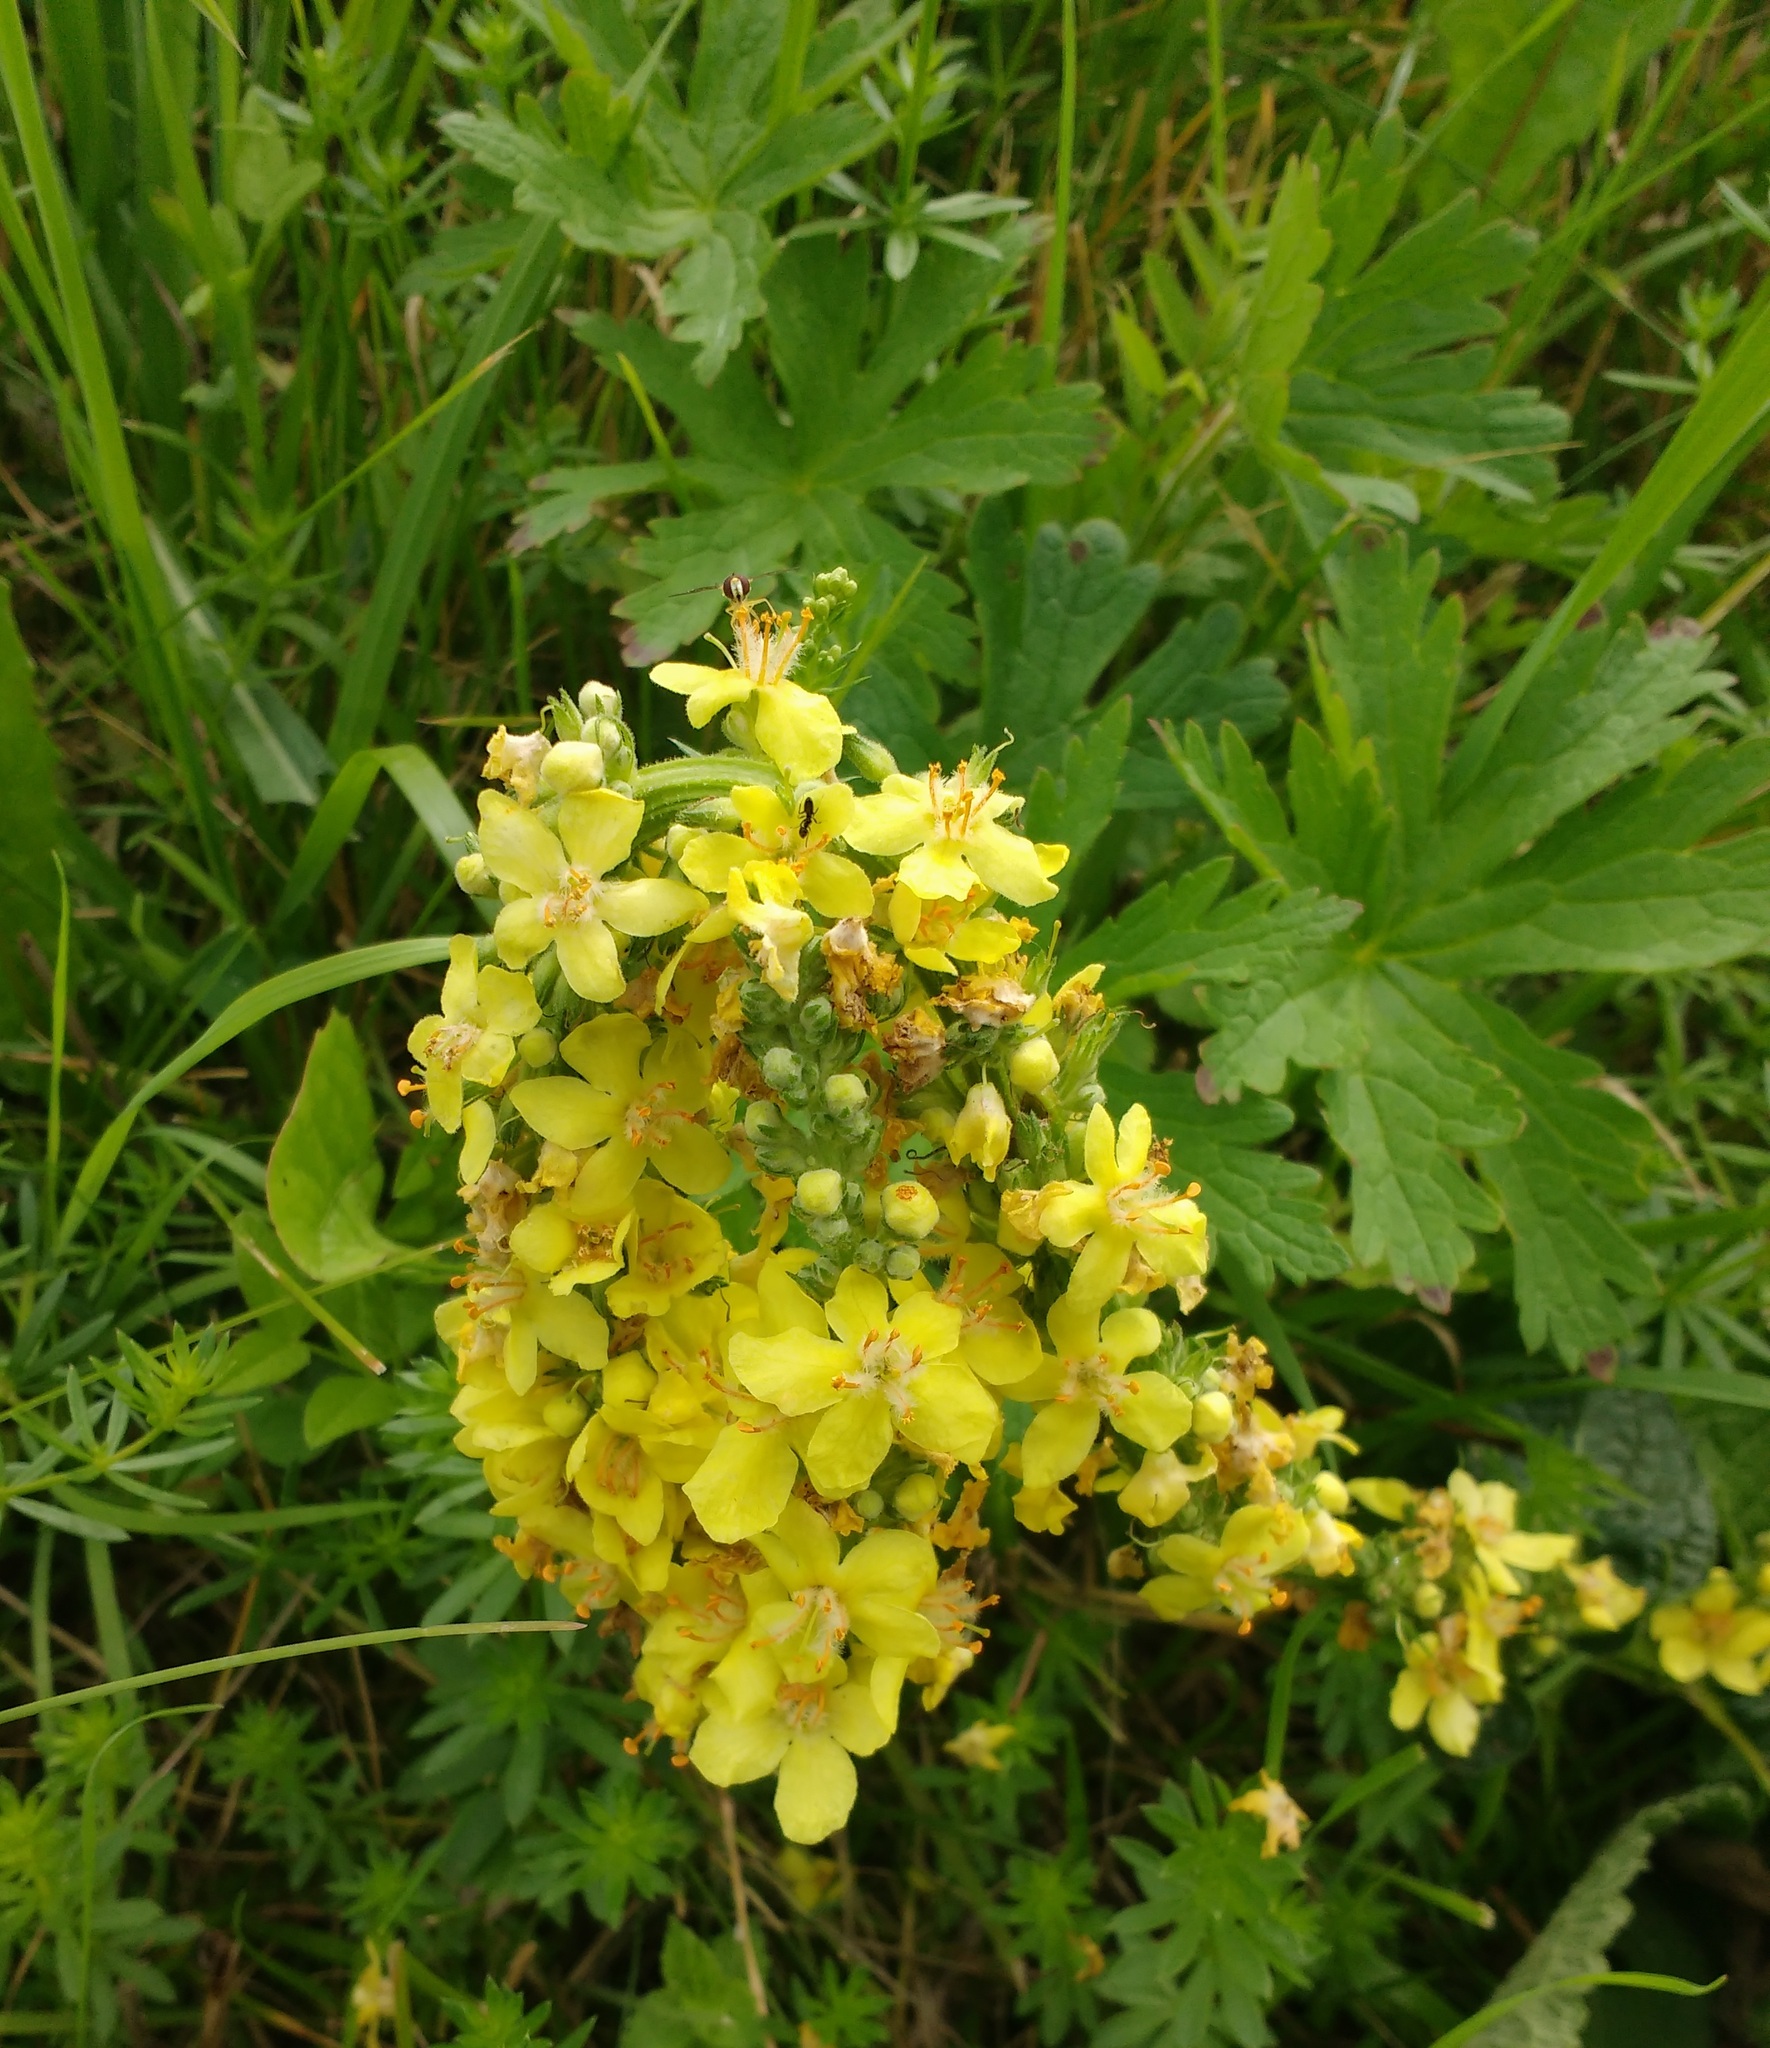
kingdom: Plantae
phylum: Tracheophyta
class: Magnoliopsida
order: Lamiales
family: Scrophulariaceae
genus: Verbascum
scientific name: Verbascum lychnitis
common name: White mullein
